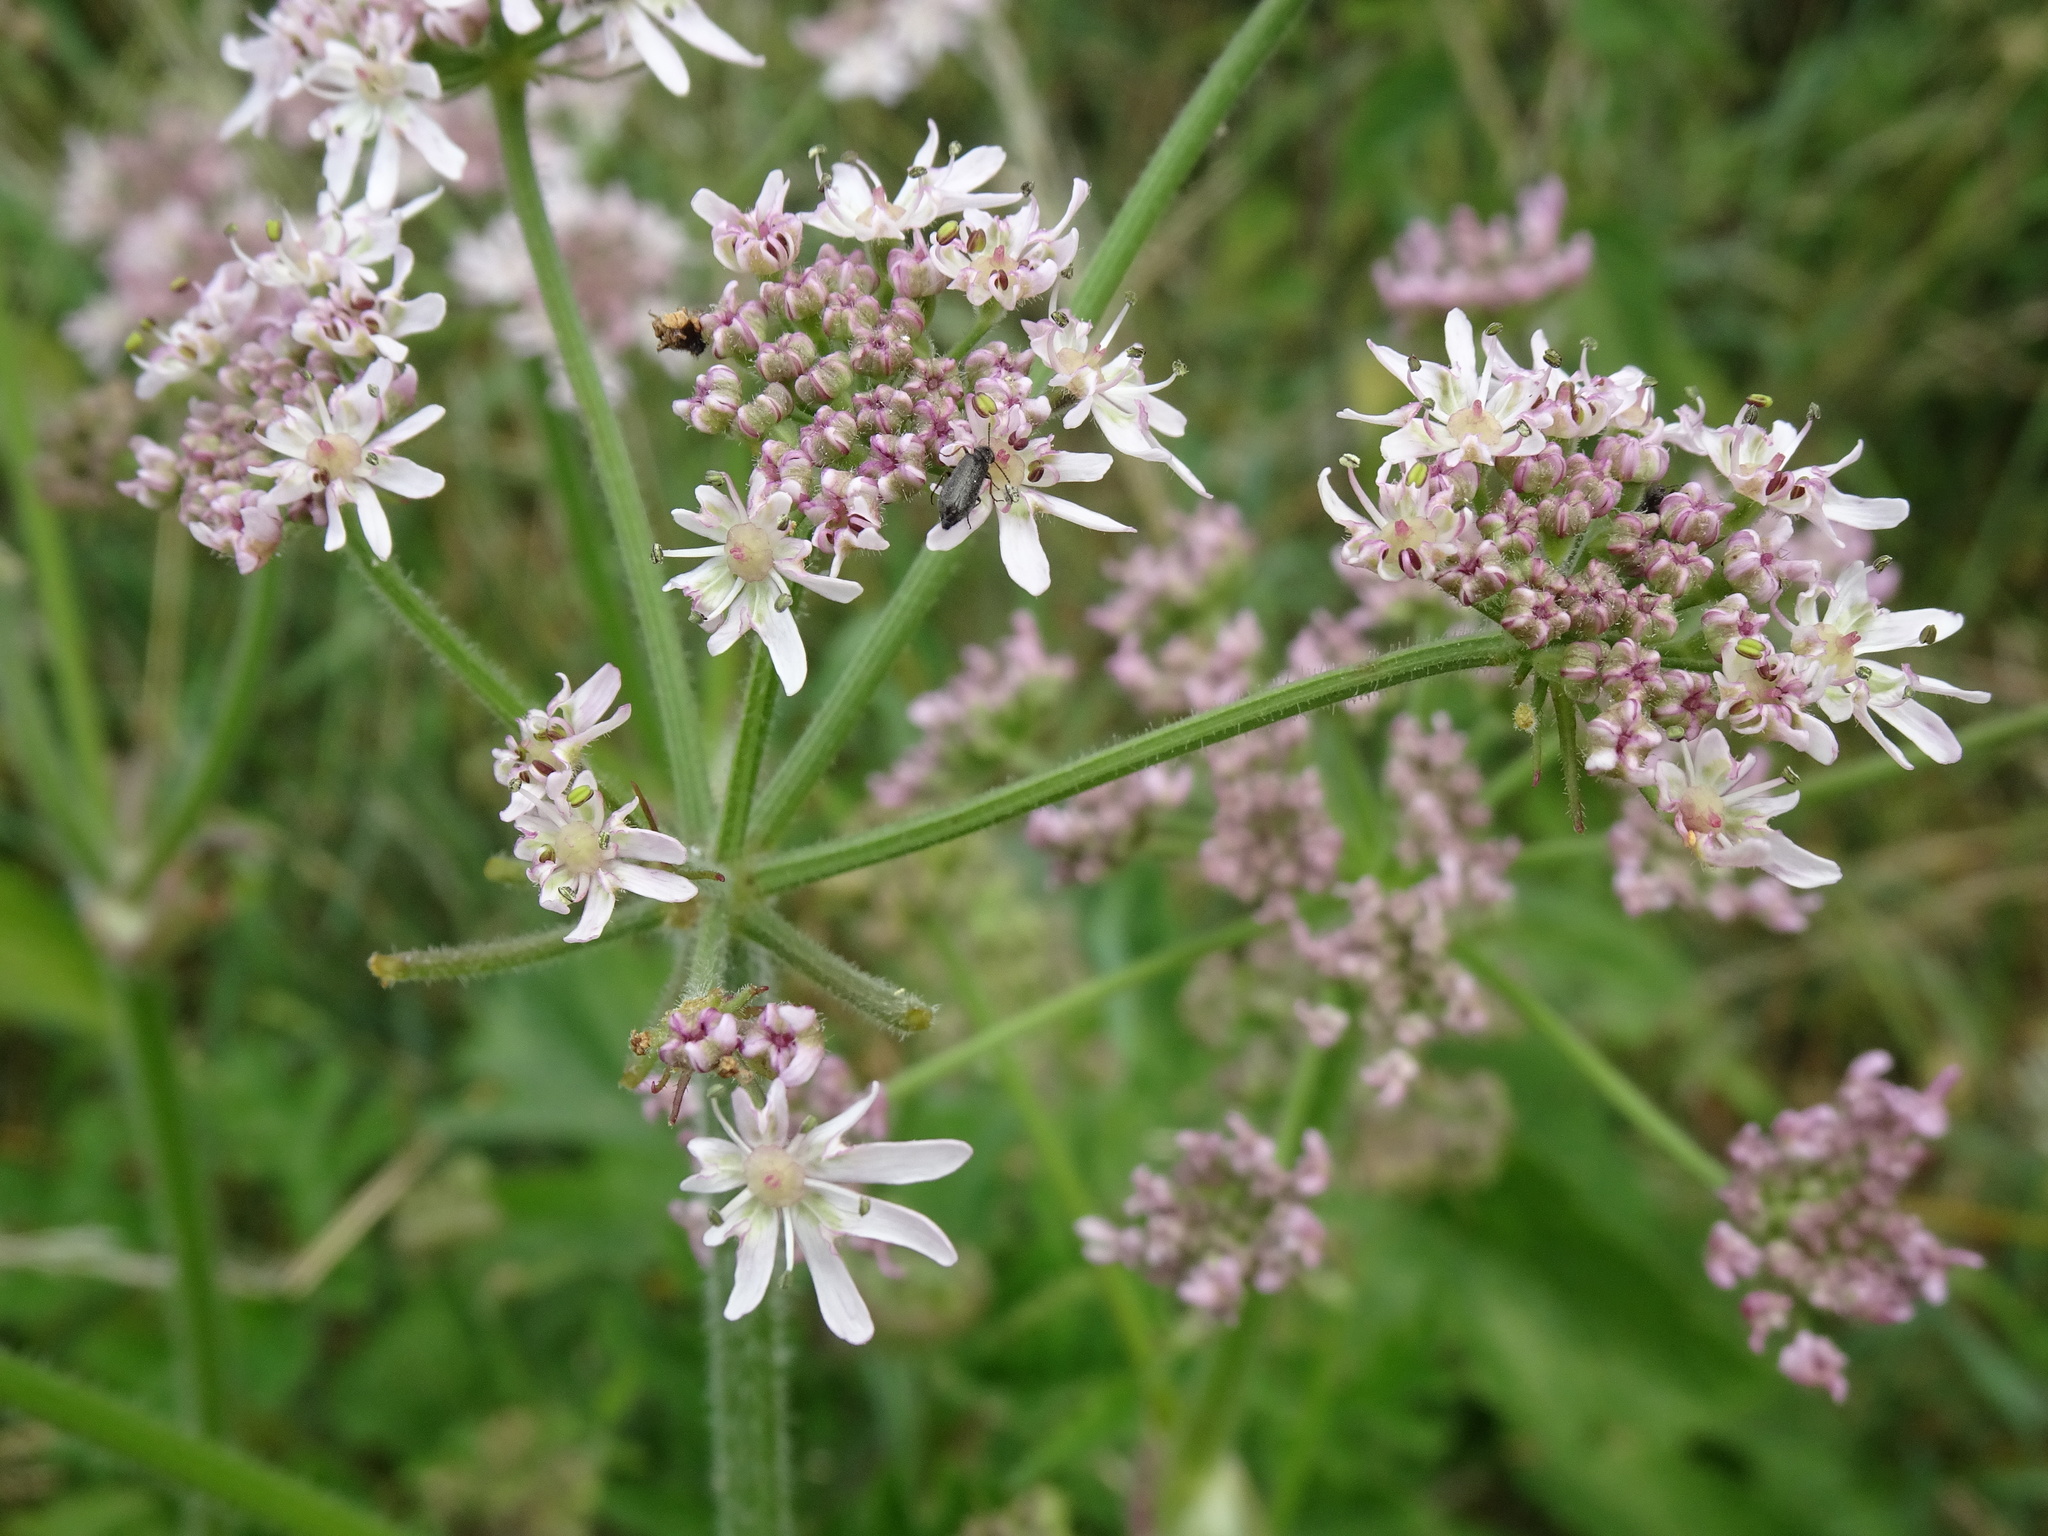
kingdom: Plantae
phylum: Tracheophyta
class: Magnoliopsida
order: Apiales
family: Apiaceae
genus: Heracleum
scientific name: Heracleum sphondylium
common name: Hogweed
